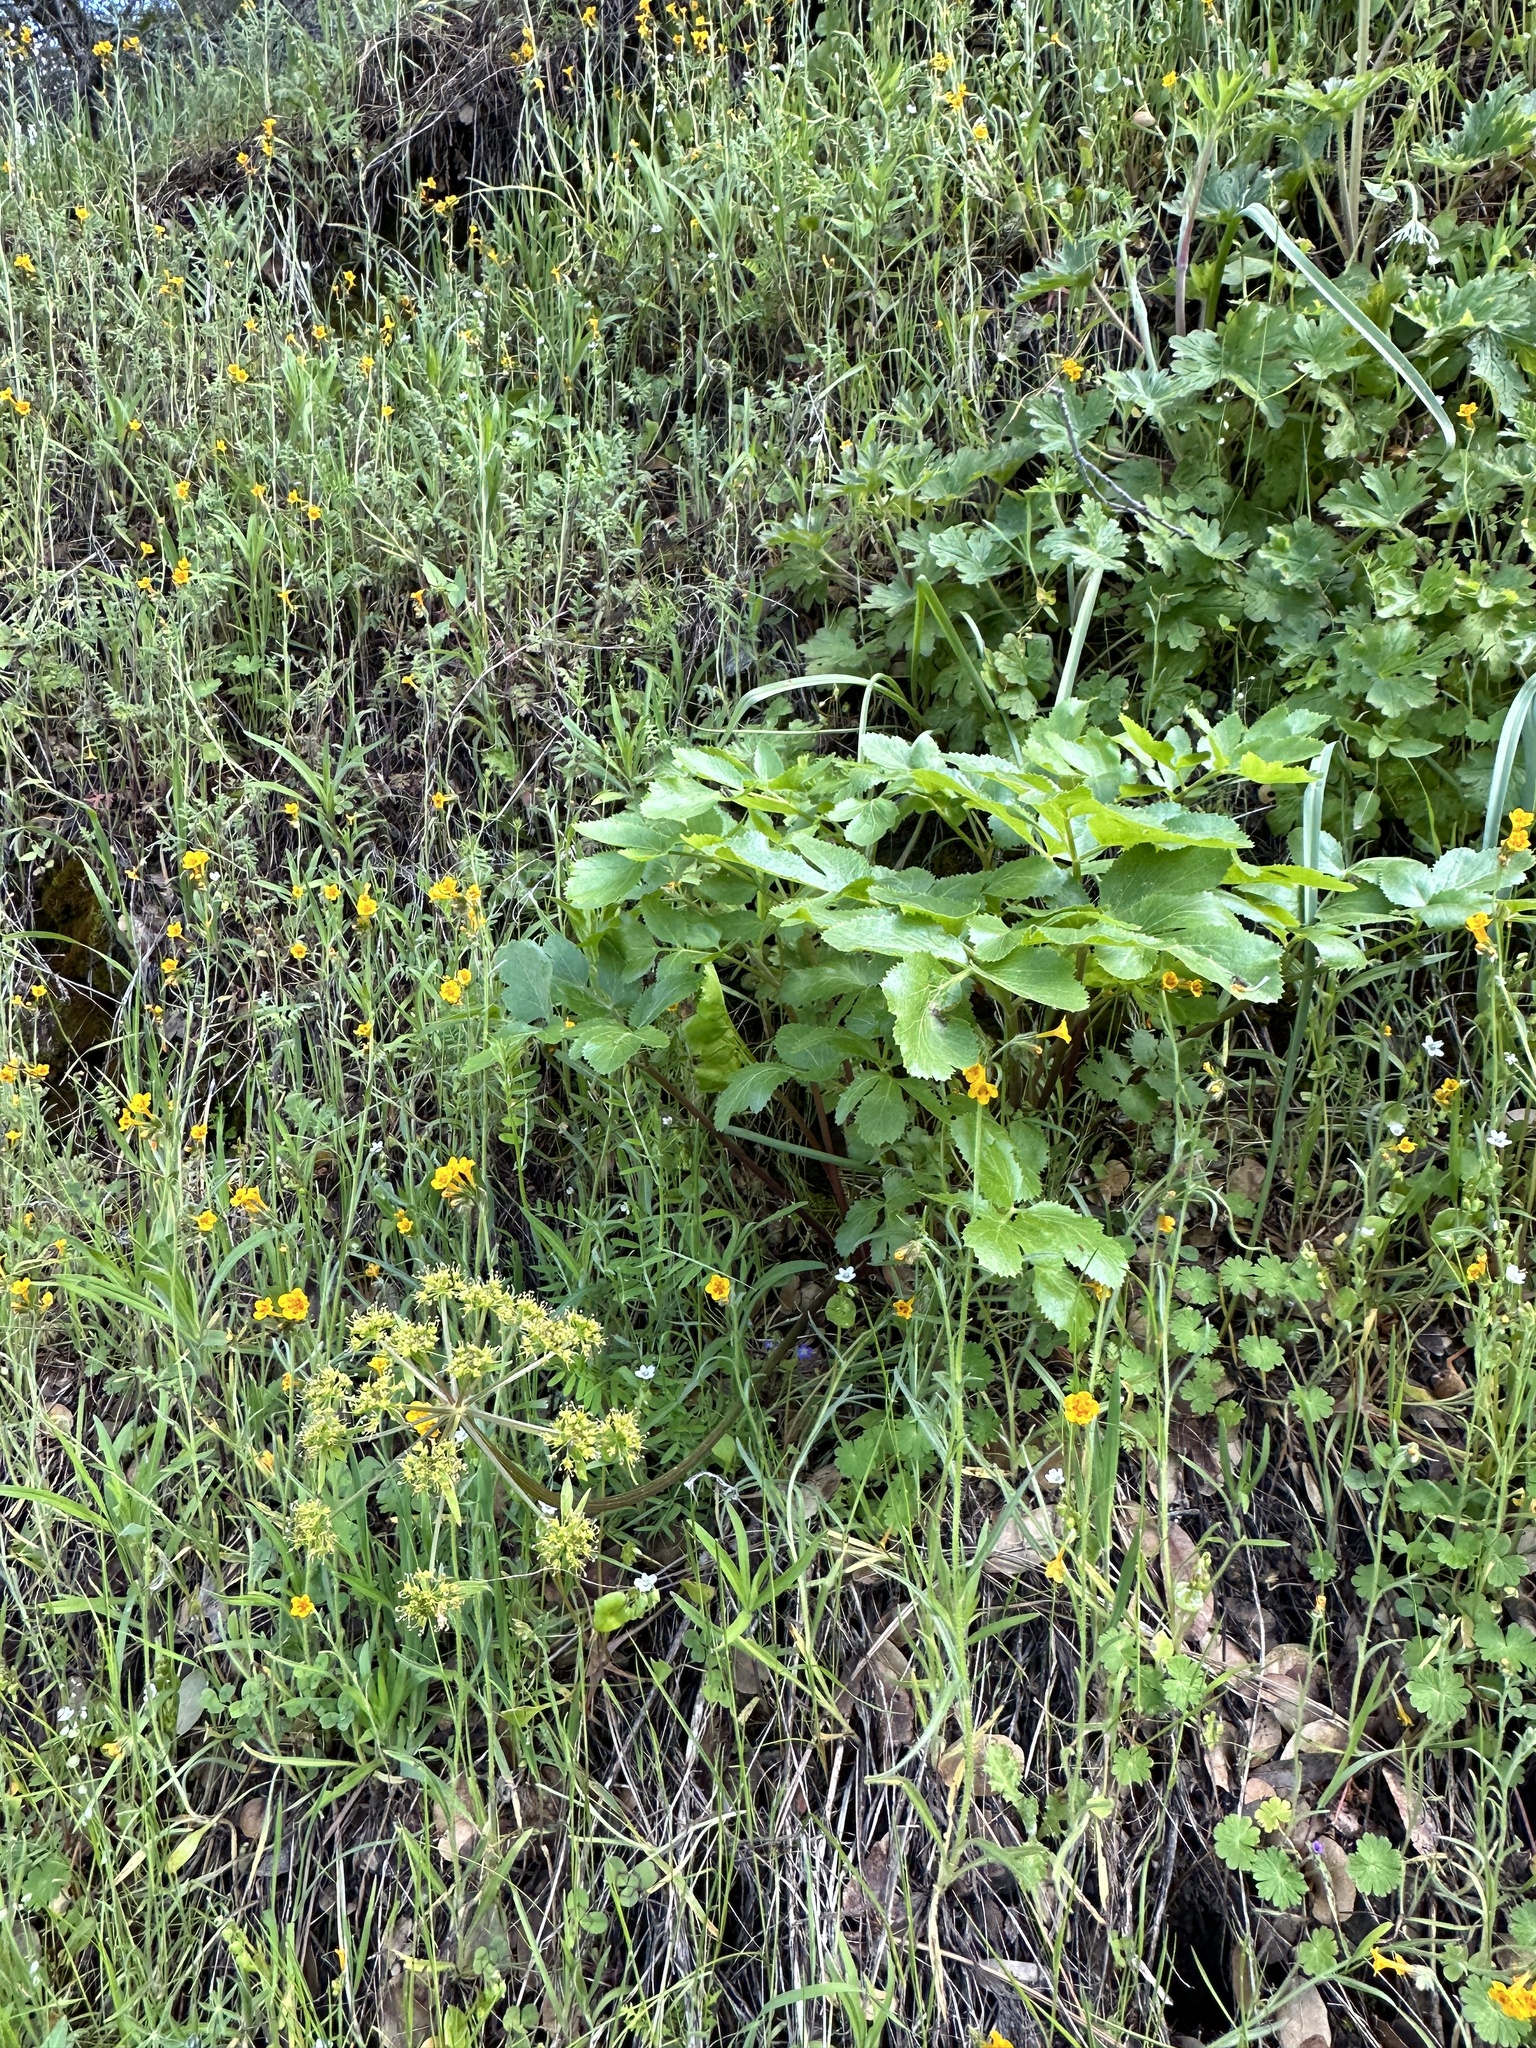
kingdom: Plantae
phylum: Tracheophyta
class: Magnoliopsida
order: Apiales
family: Apiaceae
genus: Tauschia
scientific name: Tauschia hartwegii
